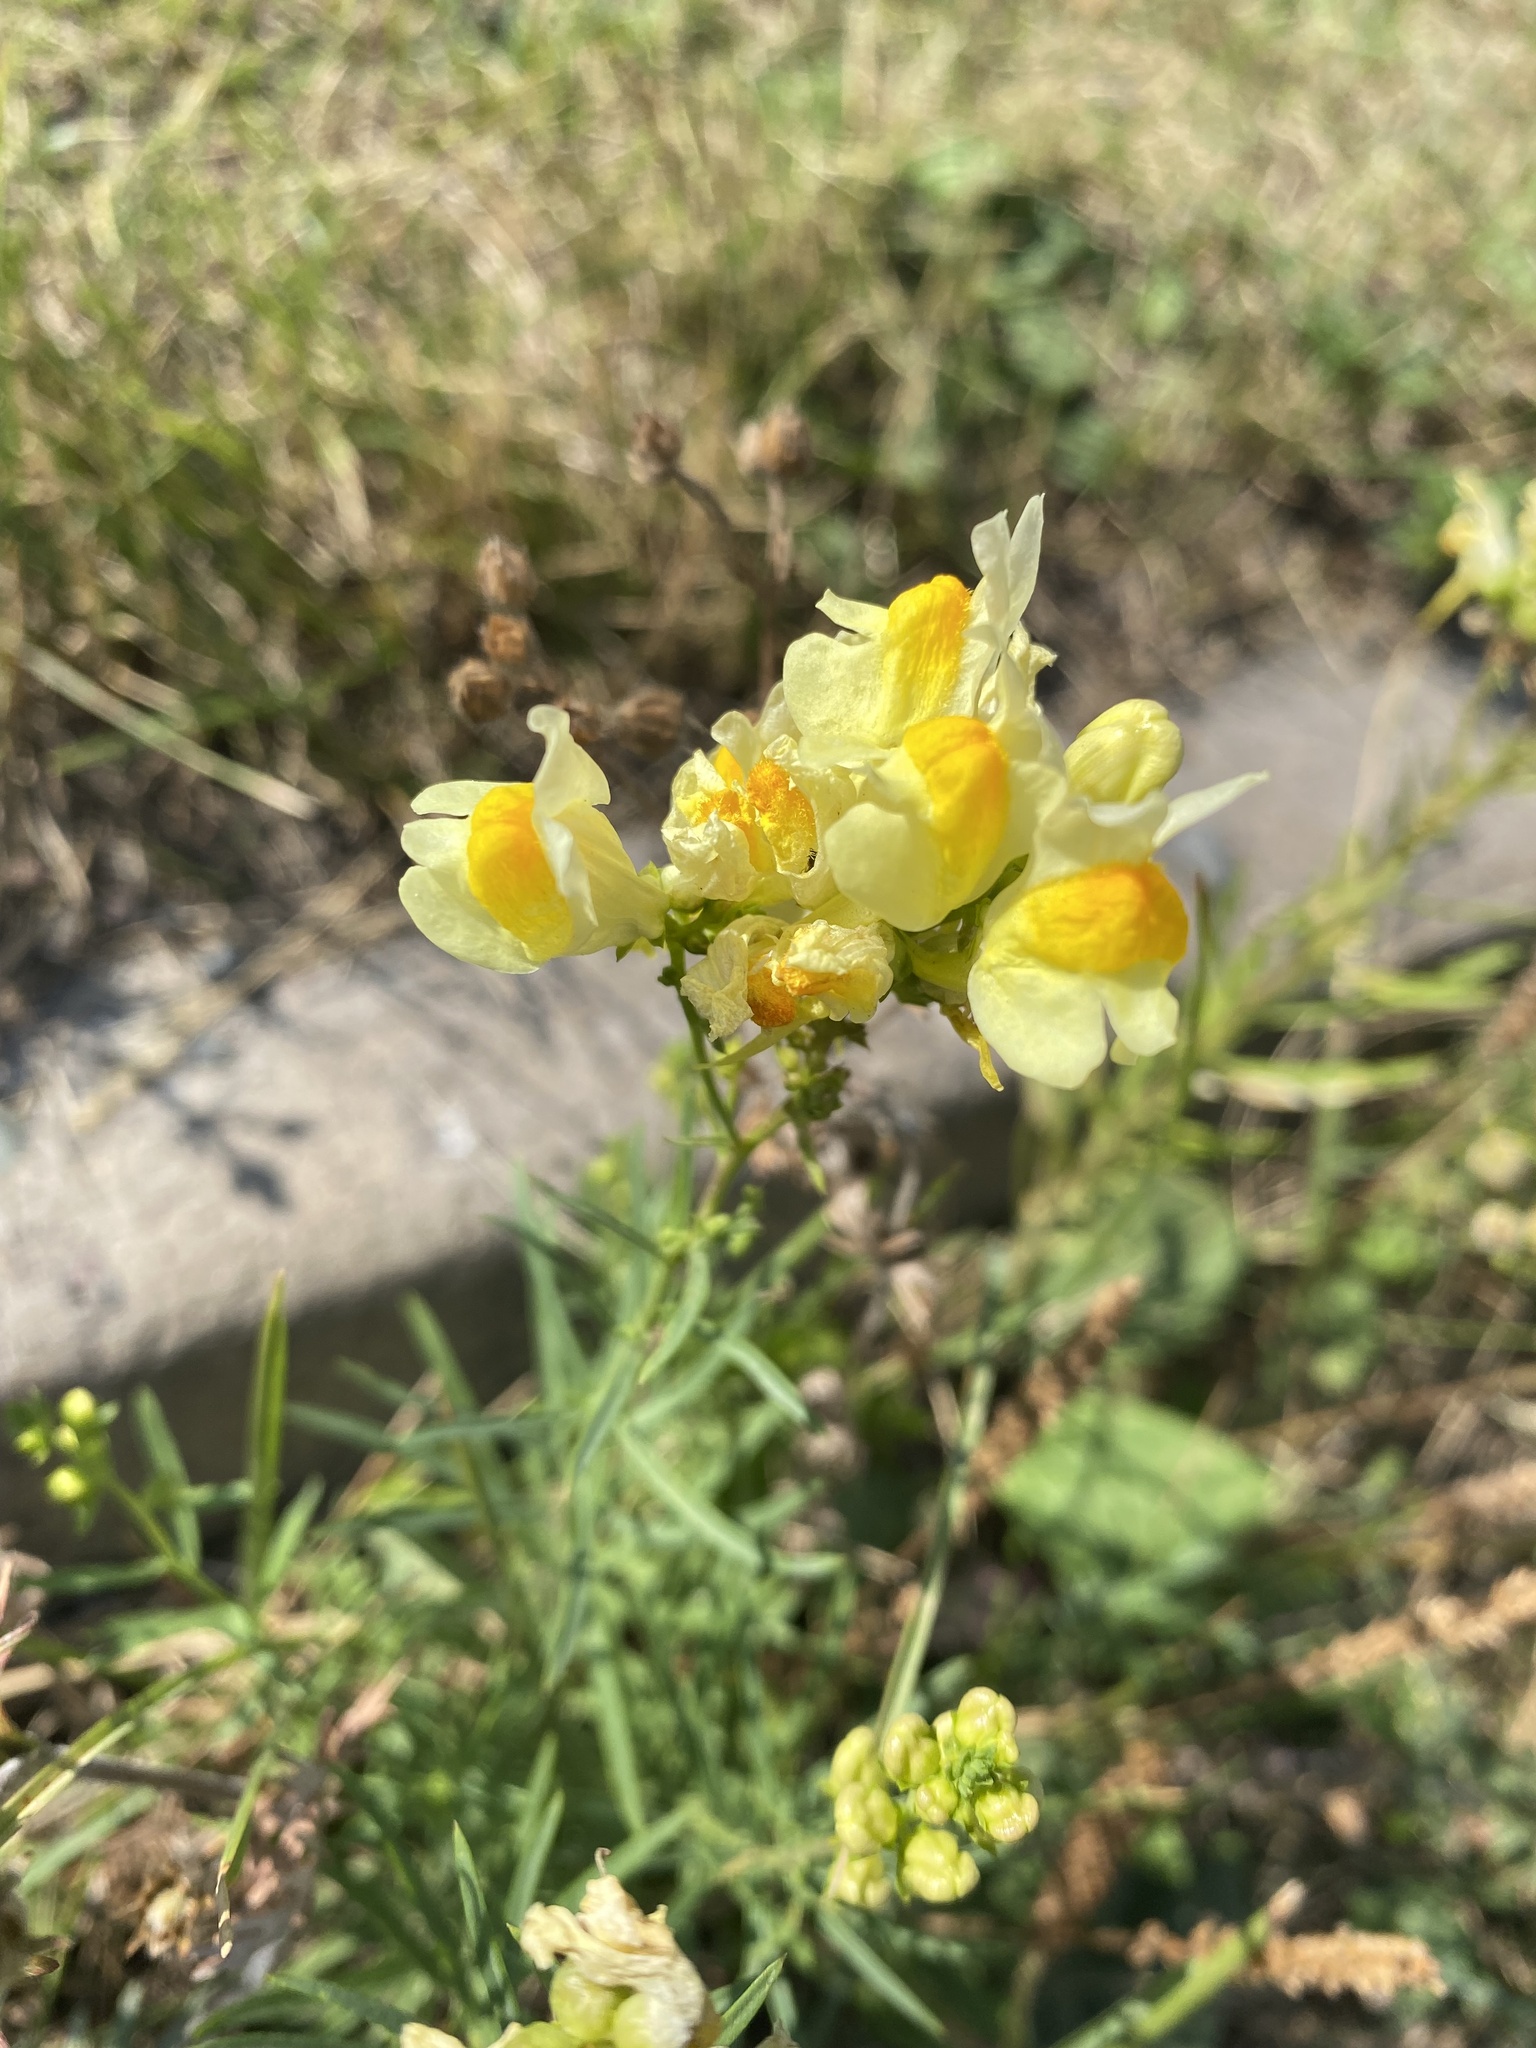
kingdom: Plantae
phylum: Tracheophyta
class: Magnoliopsida
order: Lamiales
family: Plantaginaceae
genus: Linaria
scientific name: Linaria vulgaris
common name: Butter and eggs
